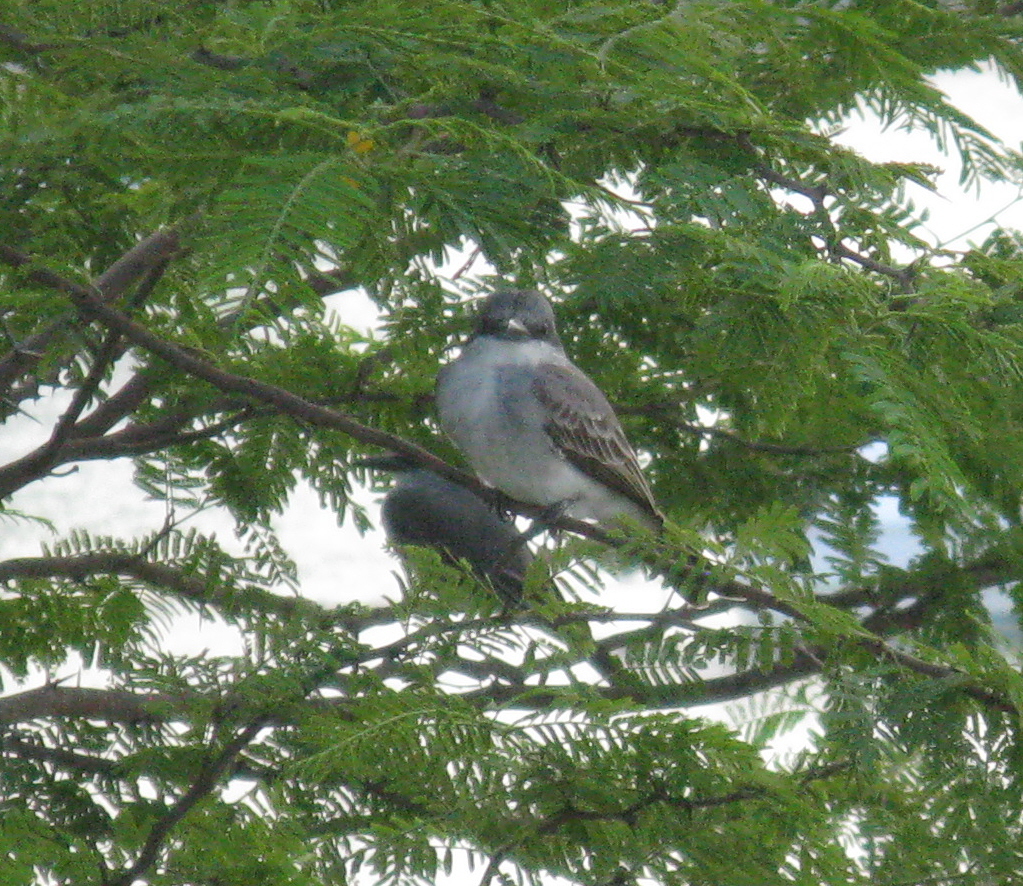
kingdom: Animalia
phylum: Chordata
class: Aves
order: Passeriformes
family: Tyrannidae
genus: Tyrannus
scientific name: Tyrannus dominicensis
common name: Gray kingbird
